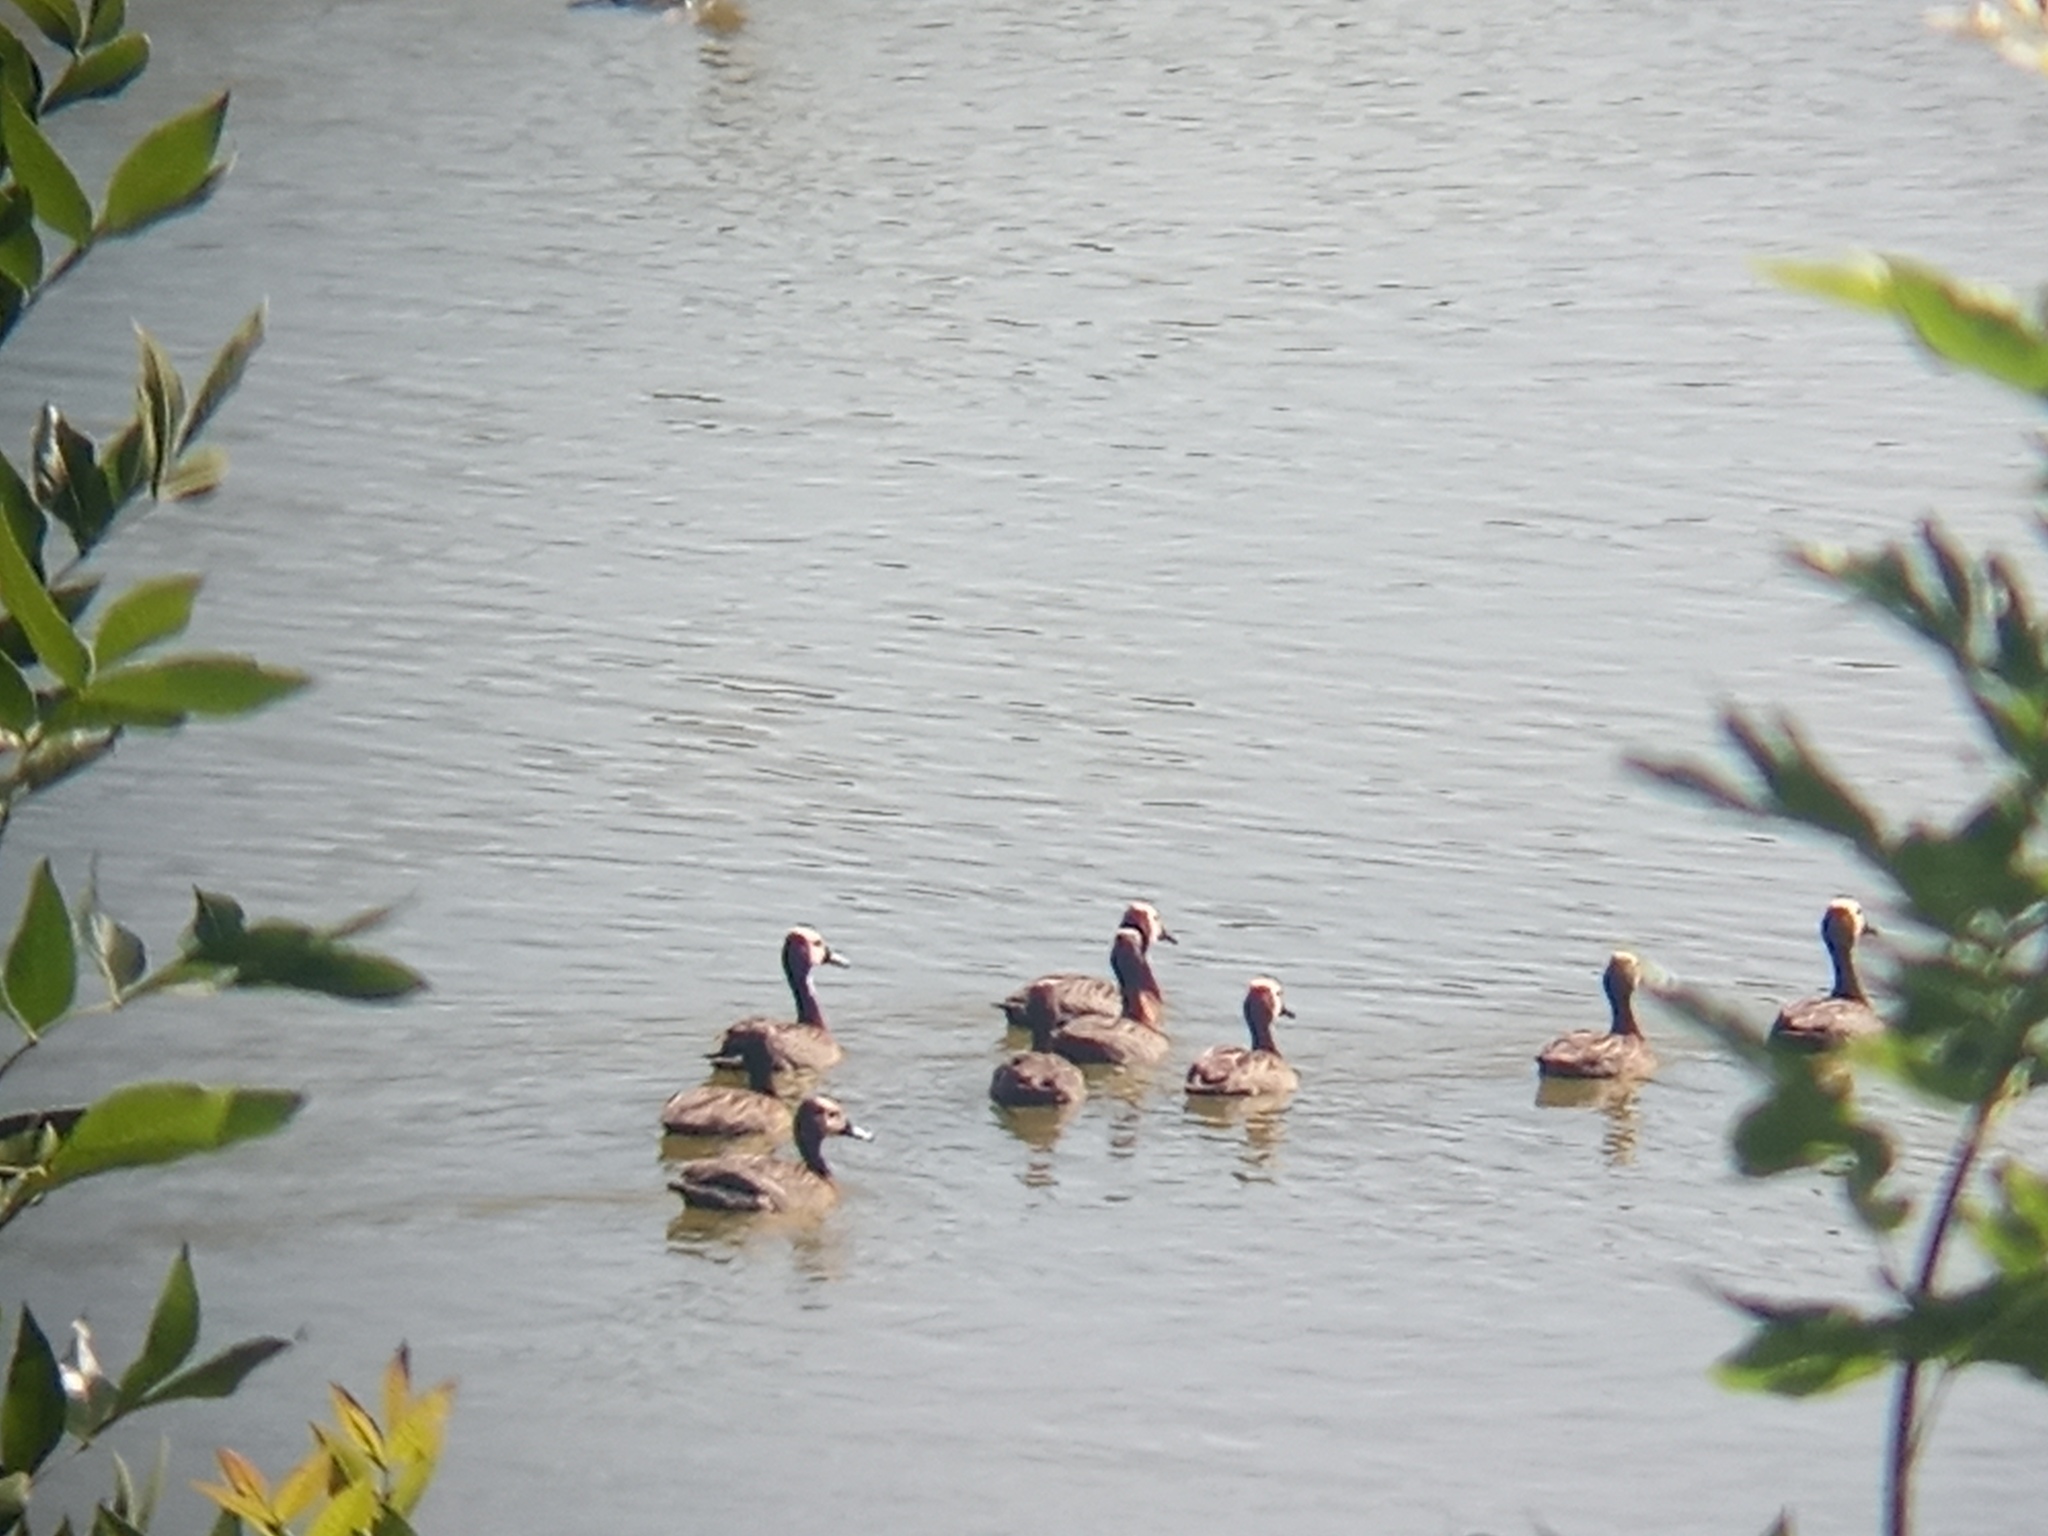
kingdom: Animalia
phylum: Chordata
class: Aves
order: Anseriformes
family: Anatidae
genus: Dendrocygna
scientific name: Dendrocygna viduata
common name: White-faced whistling duck
